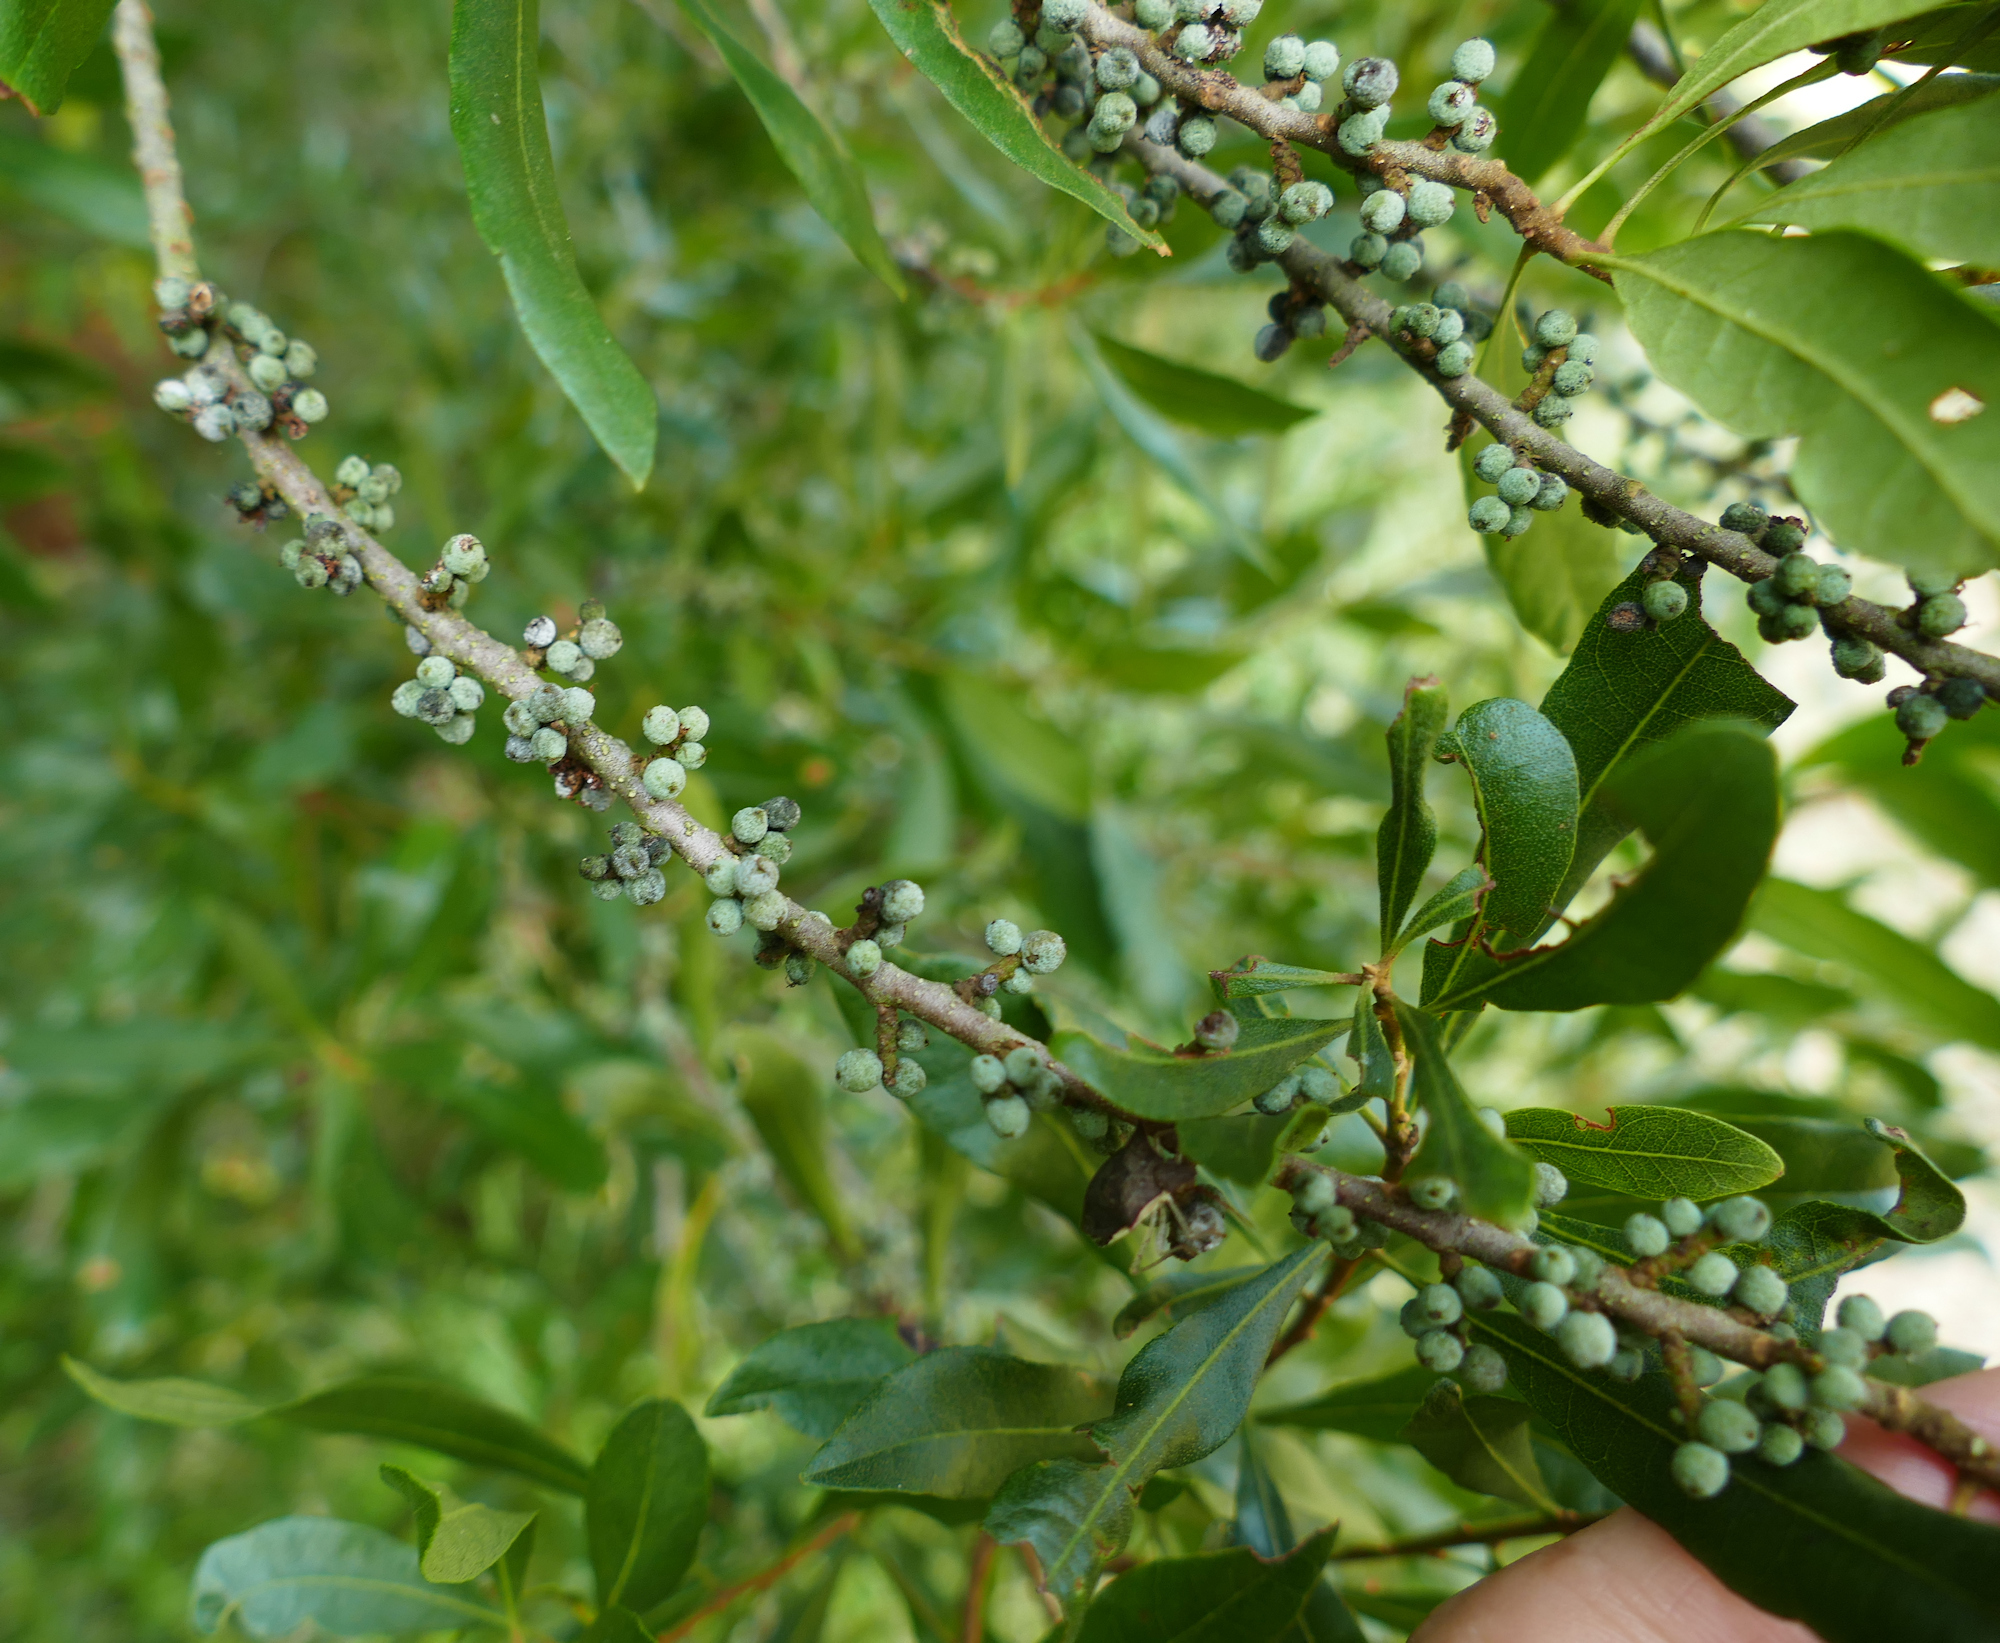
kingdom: Plantae
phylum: Tracheophyta
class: Magnoliopsida
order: Fagales
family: Myricaceae
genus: Morella
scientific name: Morella cerifera
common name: Wax myrtle
